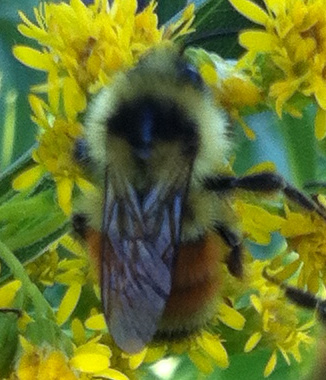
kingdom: Animalia
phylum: Arthropoda
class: Insecta
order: Hymenoptera
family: Apidae
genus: Bombus
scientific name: Bombus ternarius
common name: Tri-colored bumble bee
